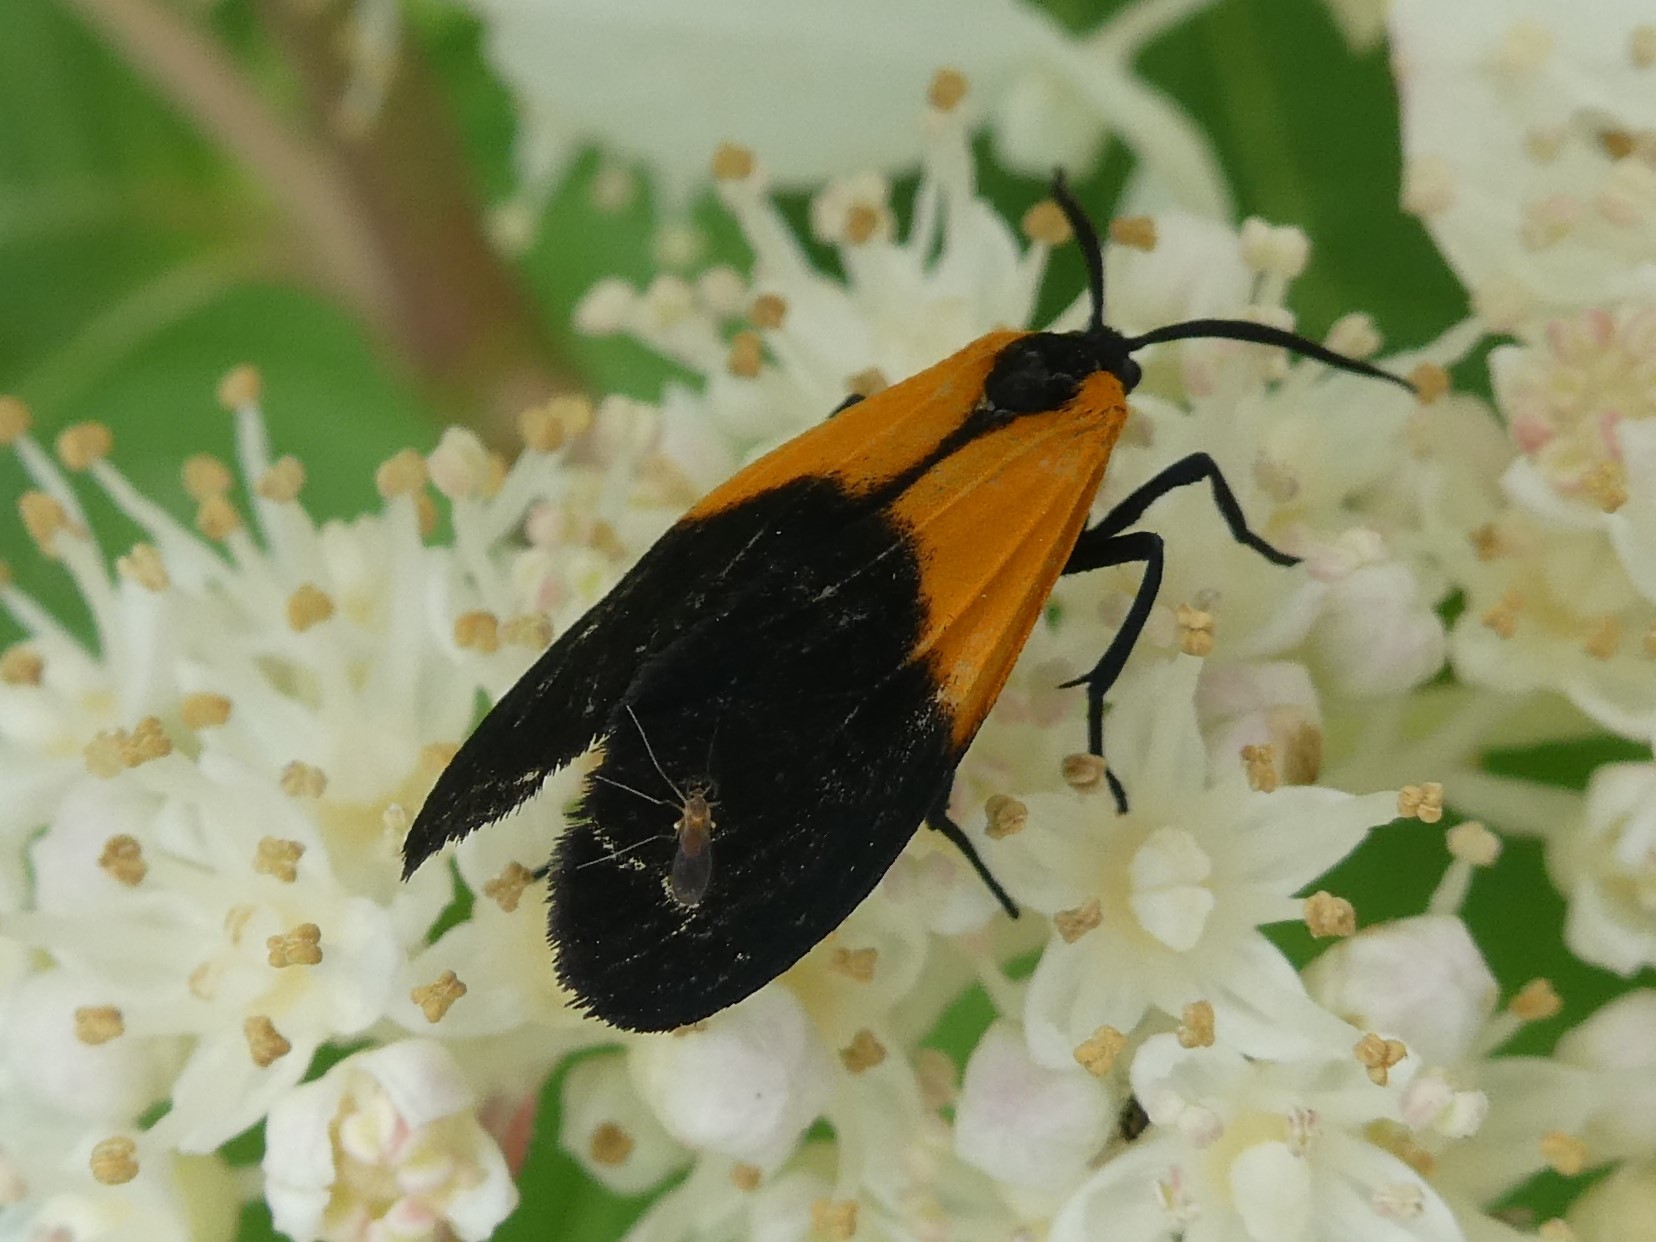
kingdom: Animalia
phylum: Arthropoda
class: Insecta
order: Lepidoptera
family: Erebidae
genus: Lycomorpha
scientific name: Lycomorpha pholus
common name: Black-and-yellow lichen moth
